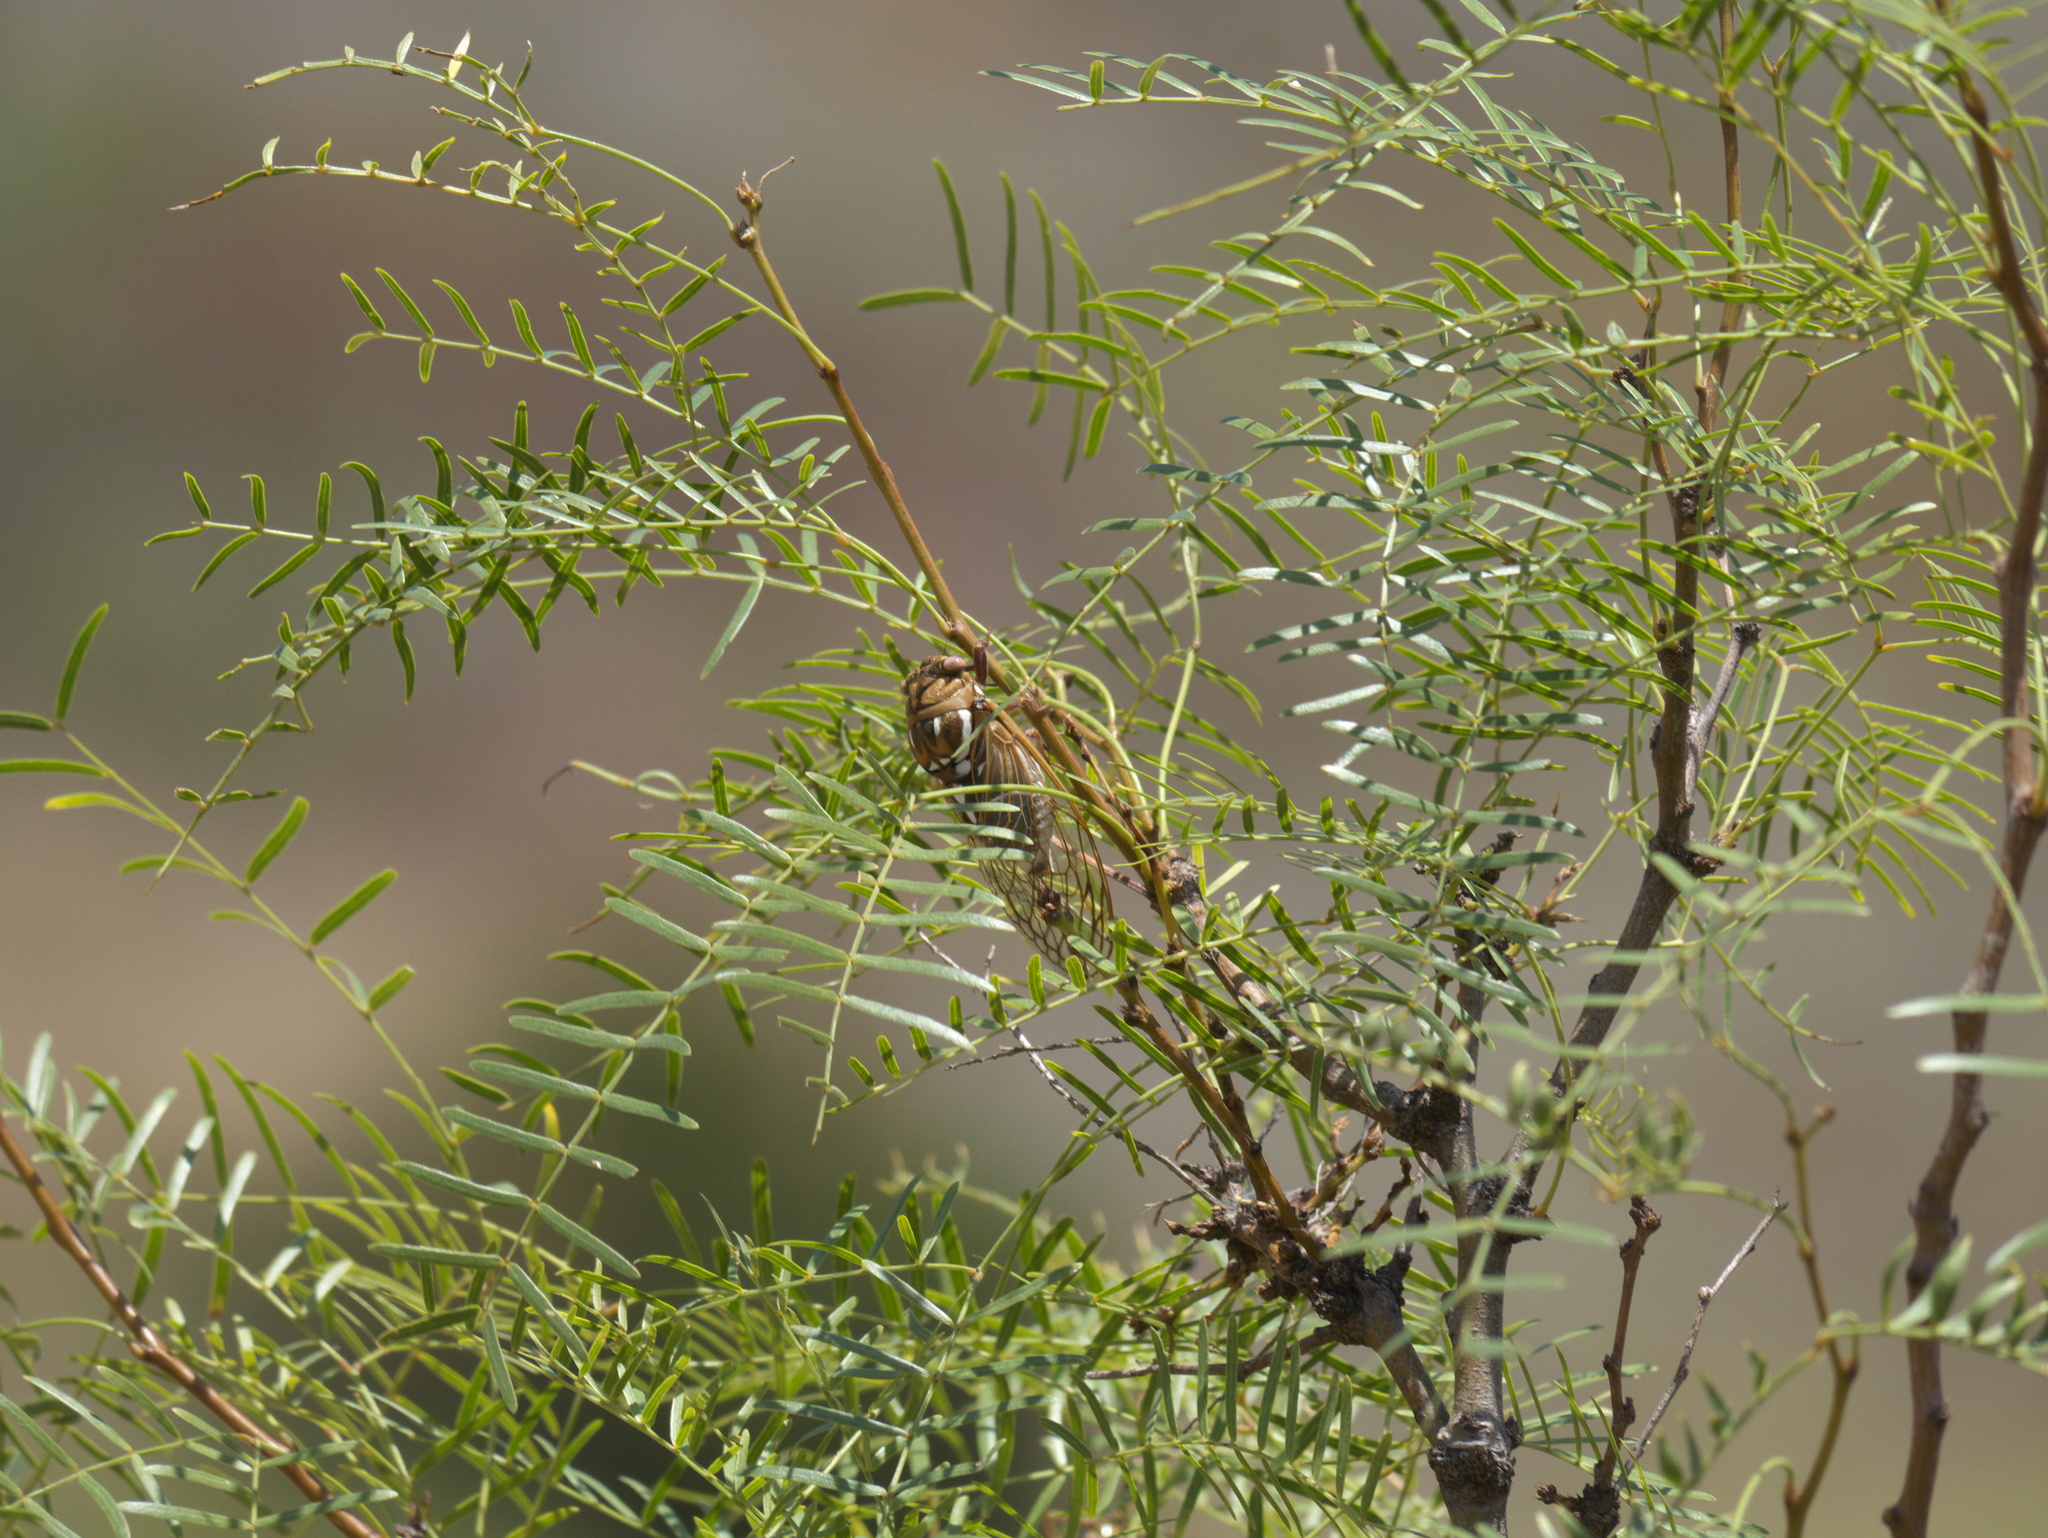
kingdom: Animalia
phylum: Arthropoda
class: Insecta
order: Hemiptera
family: Cicadidae
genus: Megatibicen
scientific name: Megatibicen dorsatus
